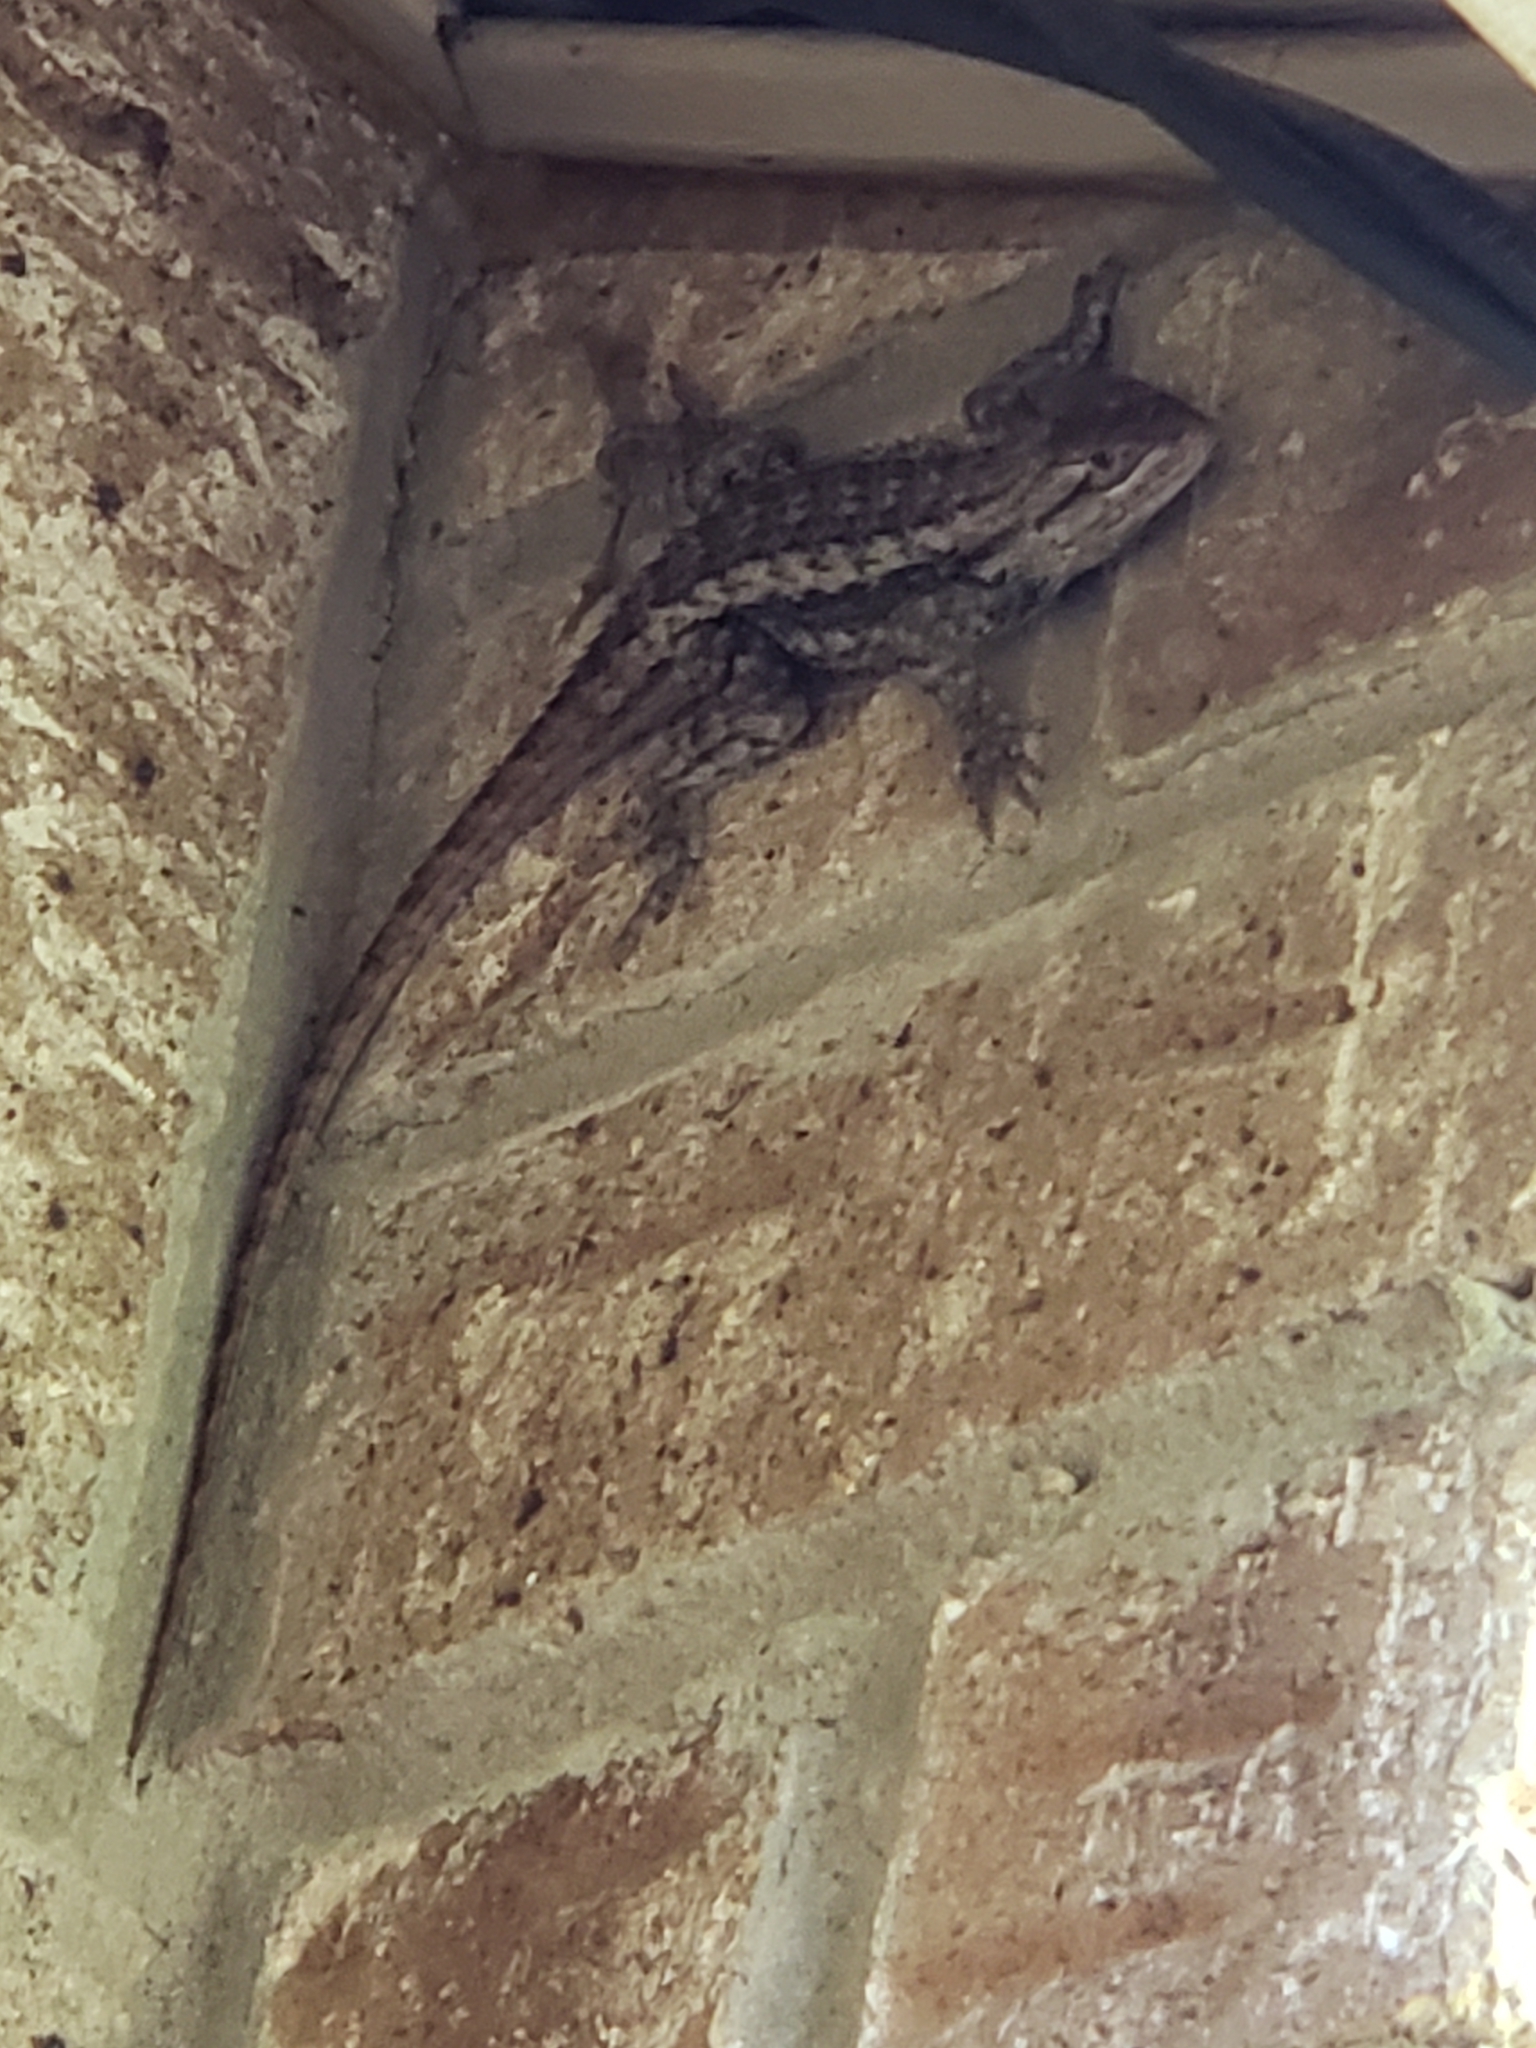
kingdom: Animalia
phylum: Chordata
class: Squamata
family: Phrynosomatidae
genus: Sceloporus
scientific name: Sceloporus olivaceus
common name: Texas spiny lizard
